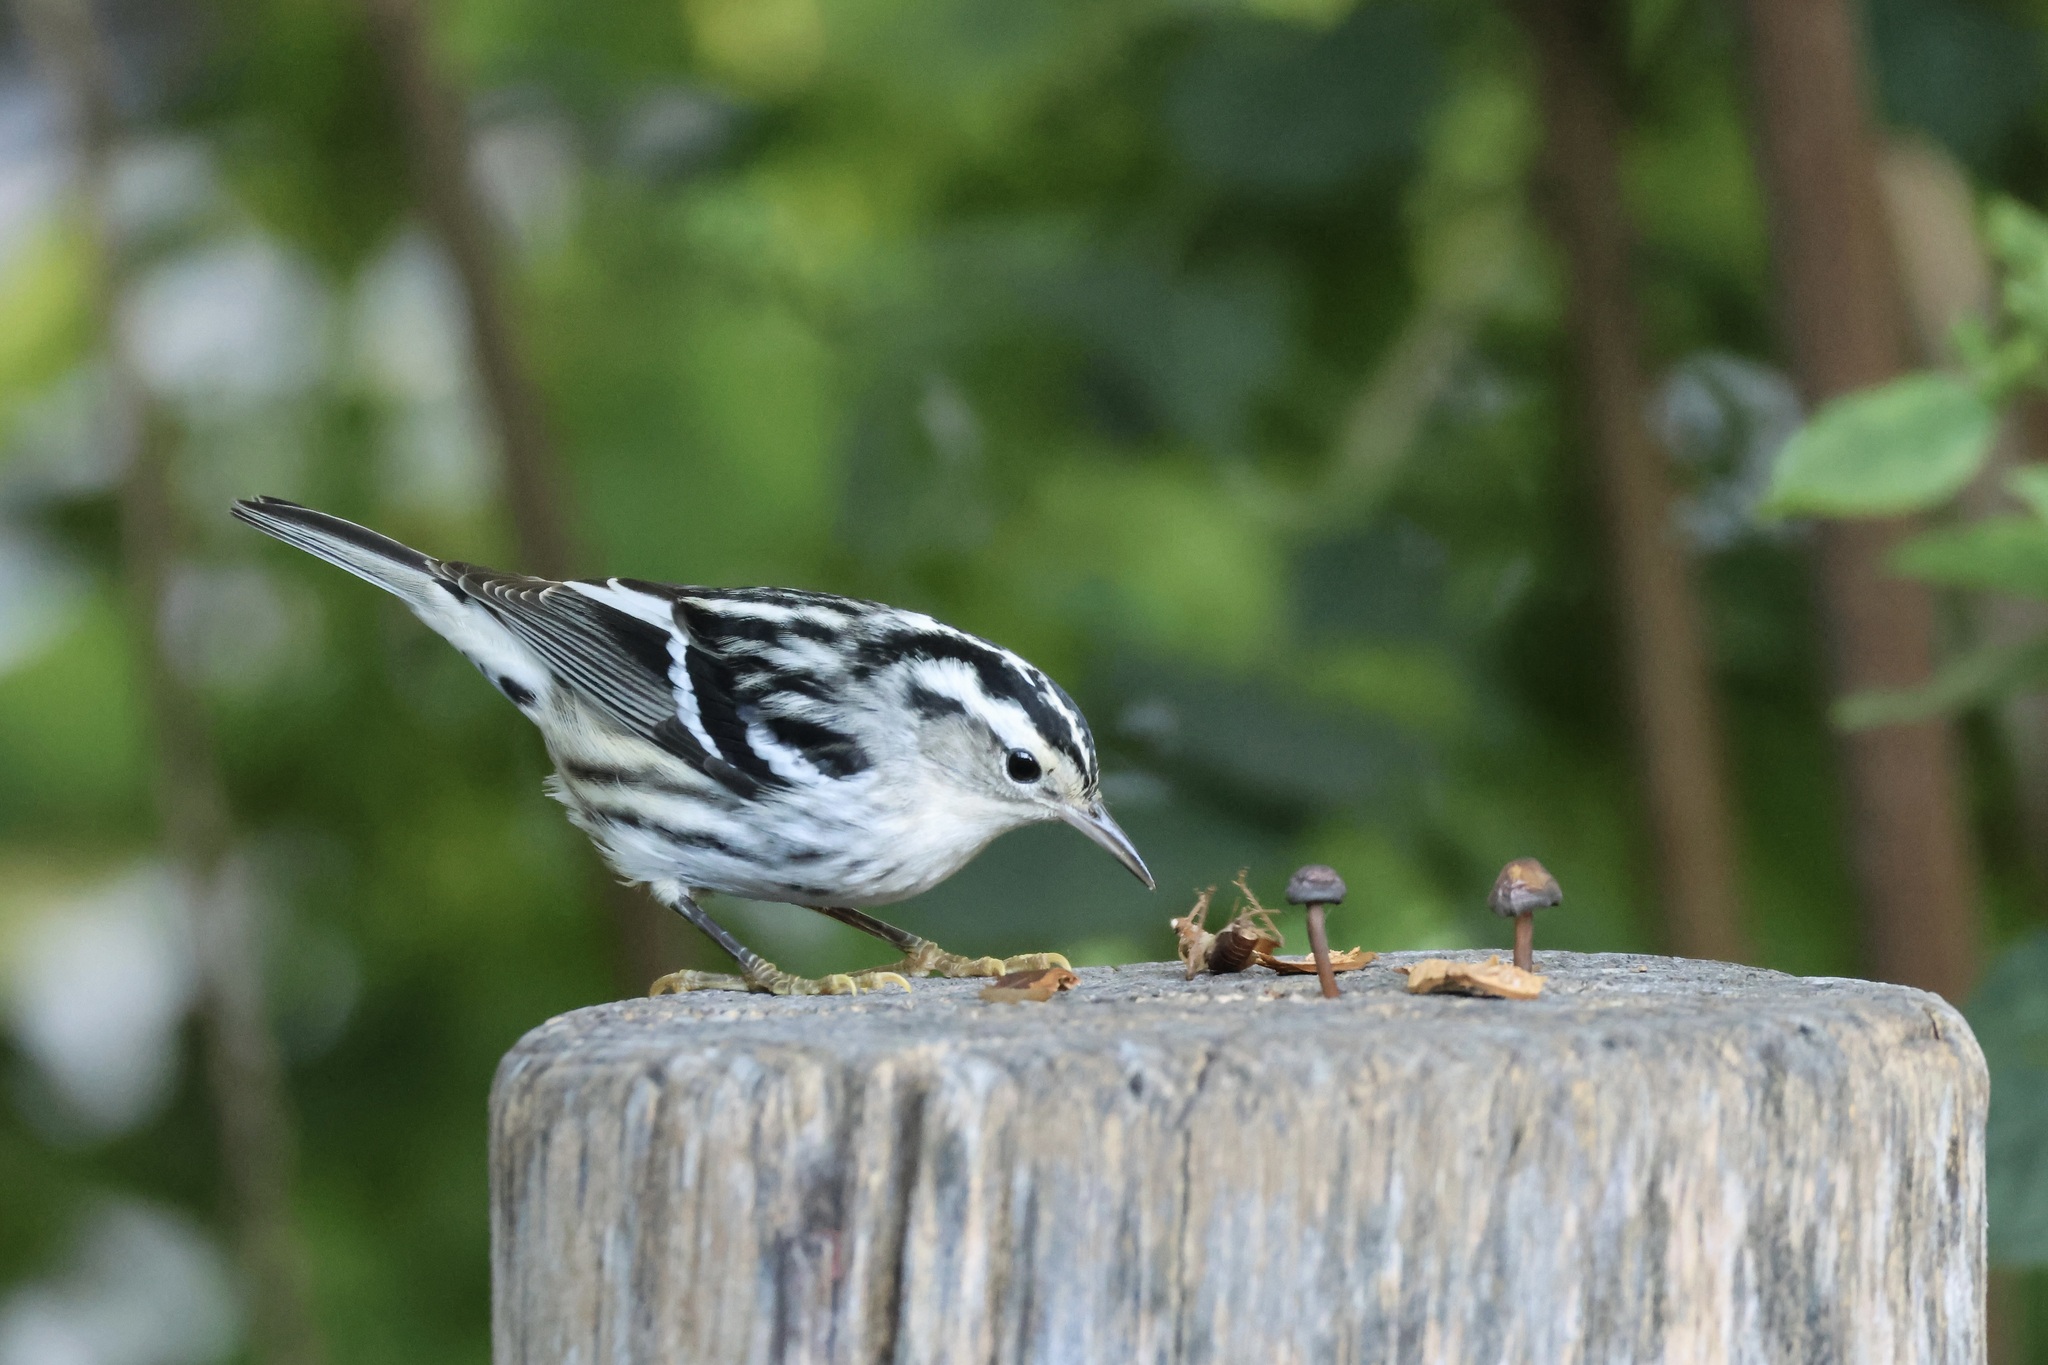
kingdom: Animalia
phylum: Chordata
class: Aves
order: Passeriformes
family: Parulidae
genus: Mniotilta
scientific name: Mniotilta varia
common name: Black-and-white warbler
